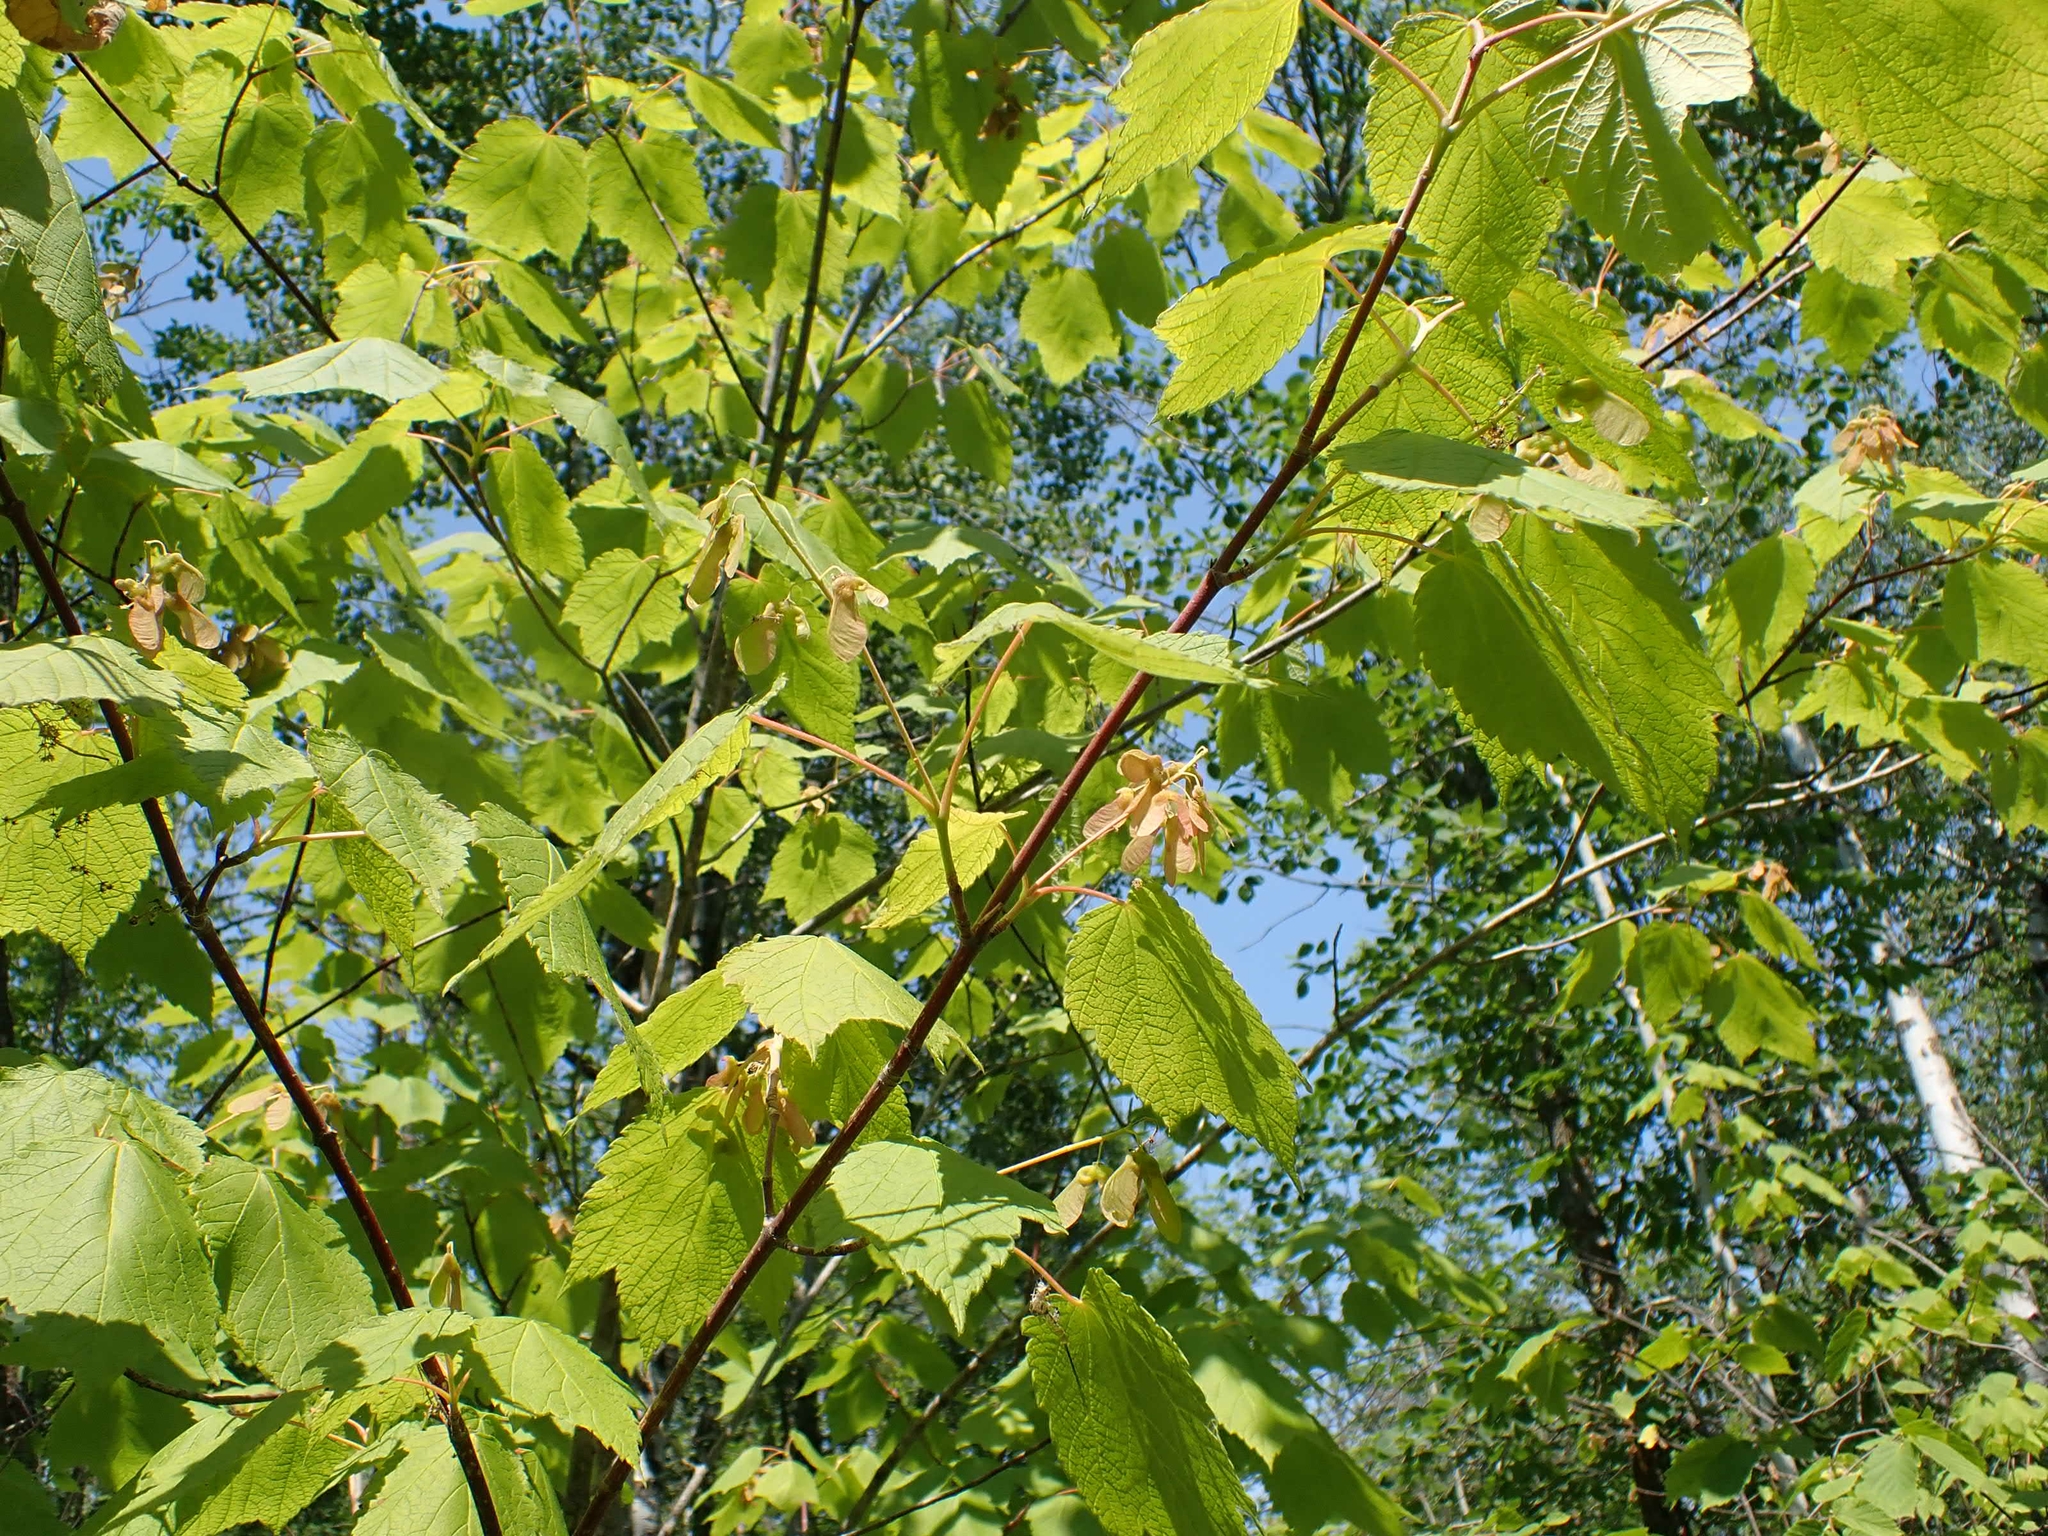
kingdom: Plantae
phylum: Tracheophyta
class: Magnoliopsida
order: Sapindales
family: Sapindaceae
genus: Acer
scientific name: Acer spicatum
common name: Mountain maple
